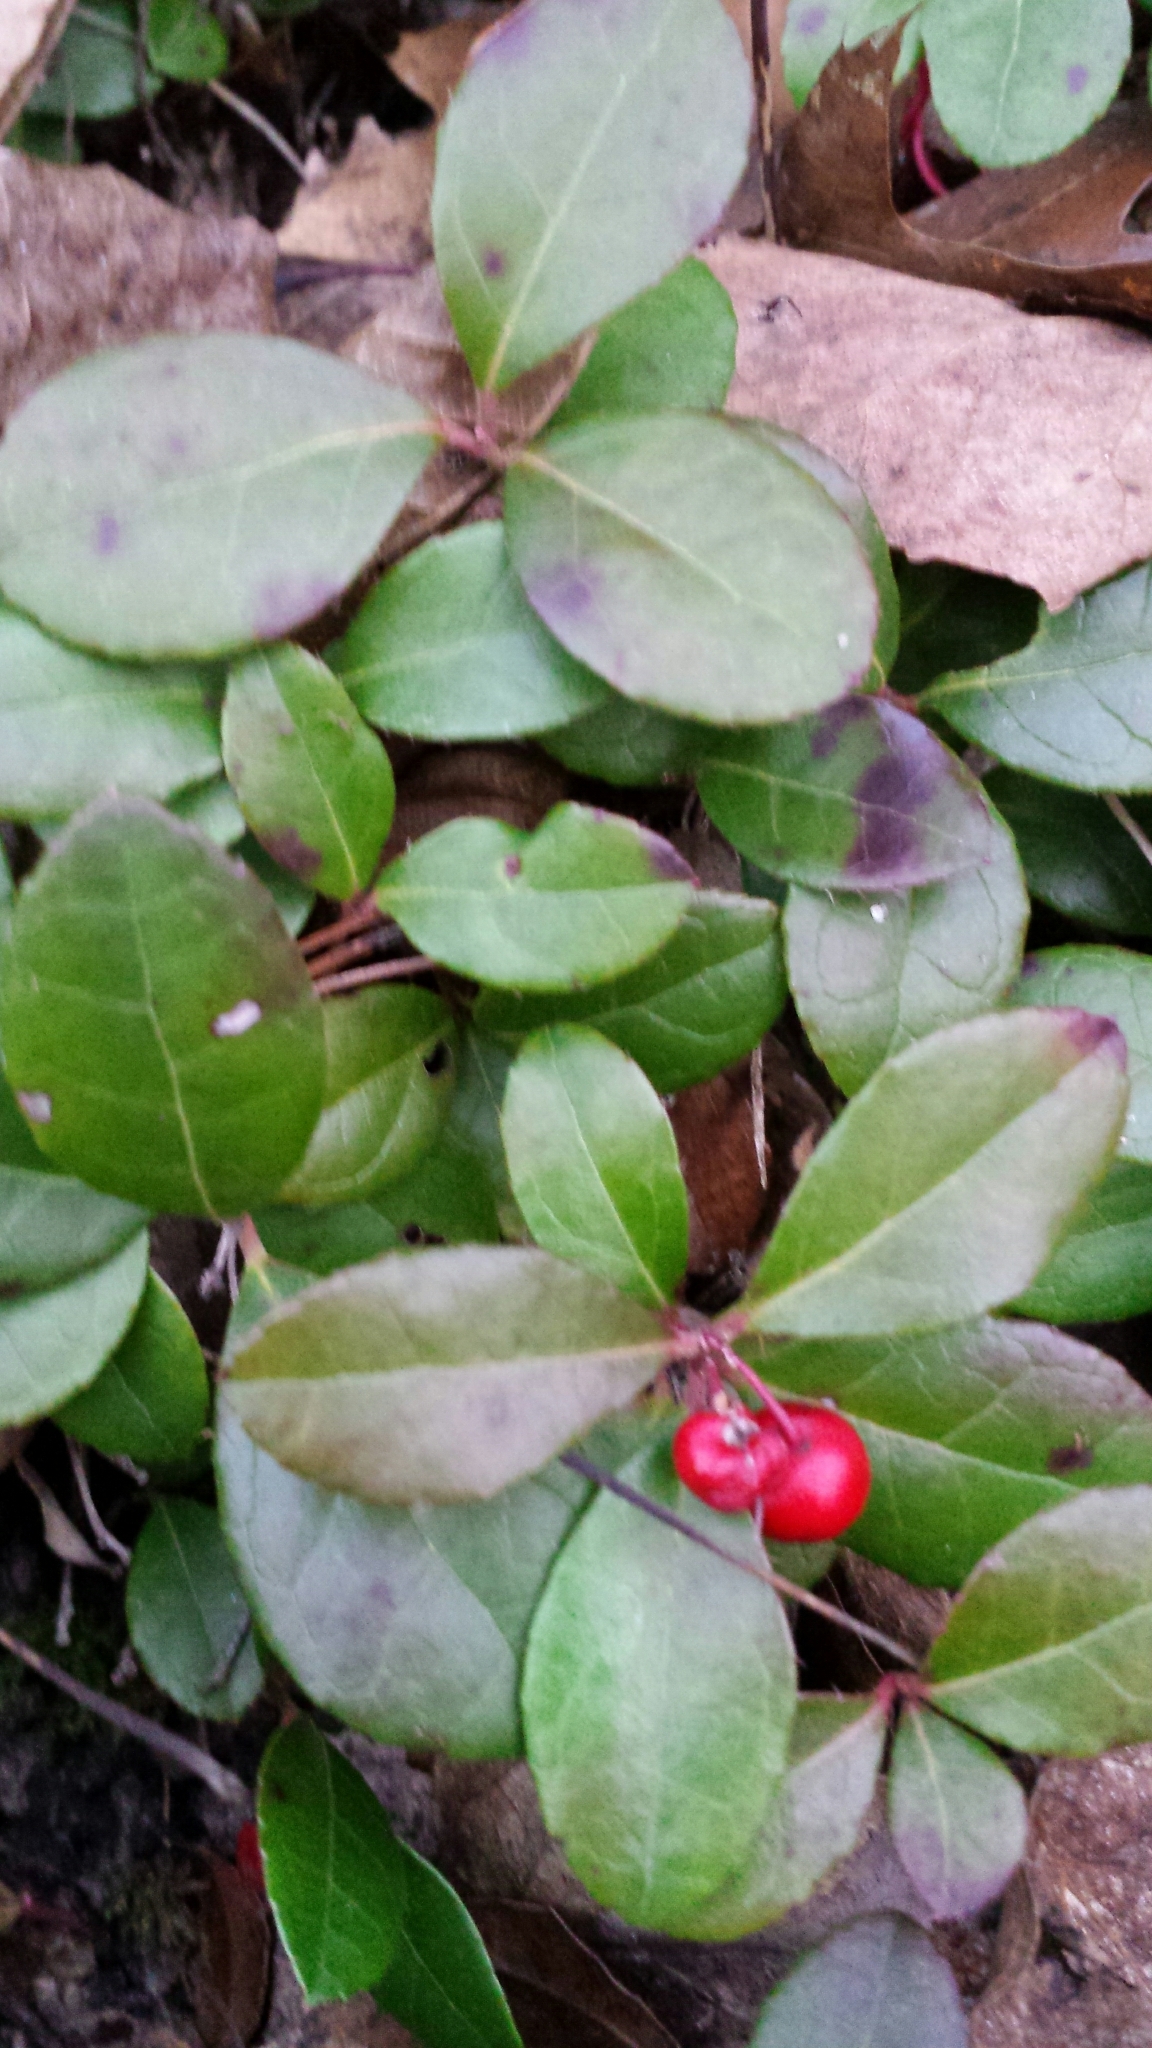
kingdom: Plantae
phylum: Tracheophyta
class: Magnoliopsida
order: Ericales
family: Ericaceae
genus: Gaultheria
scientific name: Gaultheria procumbens
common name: Checkerberry
